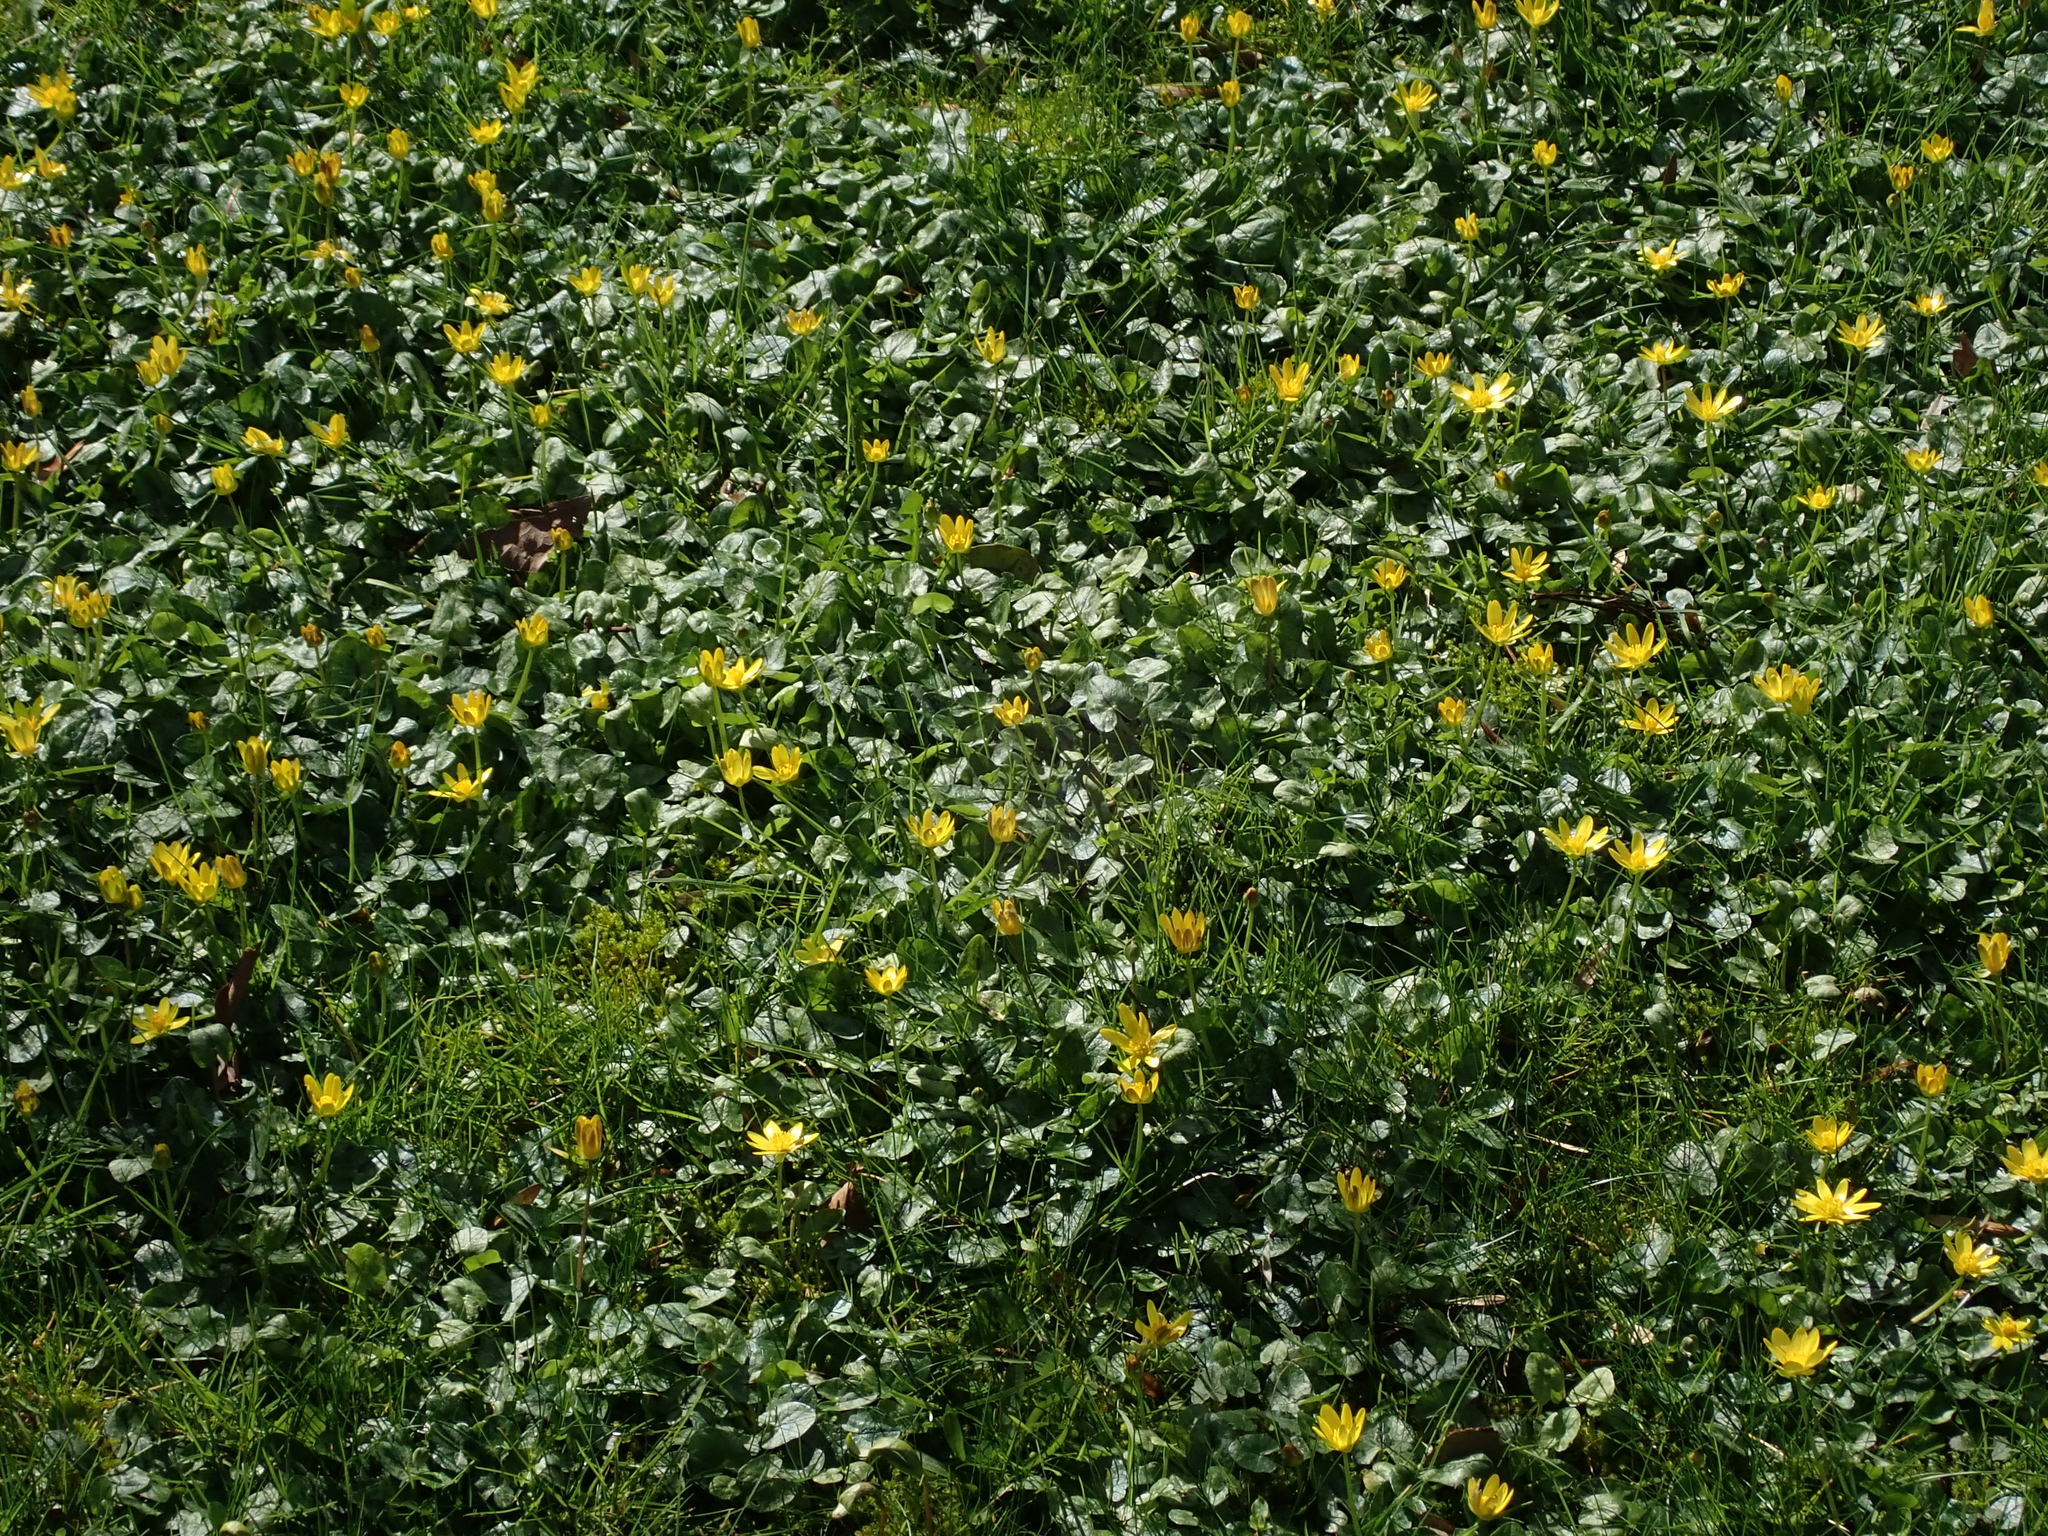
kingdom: Plantae
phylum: Tracheophyta
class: Magnoliopsida
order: Ranunculales
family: Ranunculaceae
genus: Ficaria
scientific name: Ficaria verna
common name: Lesser celandine
